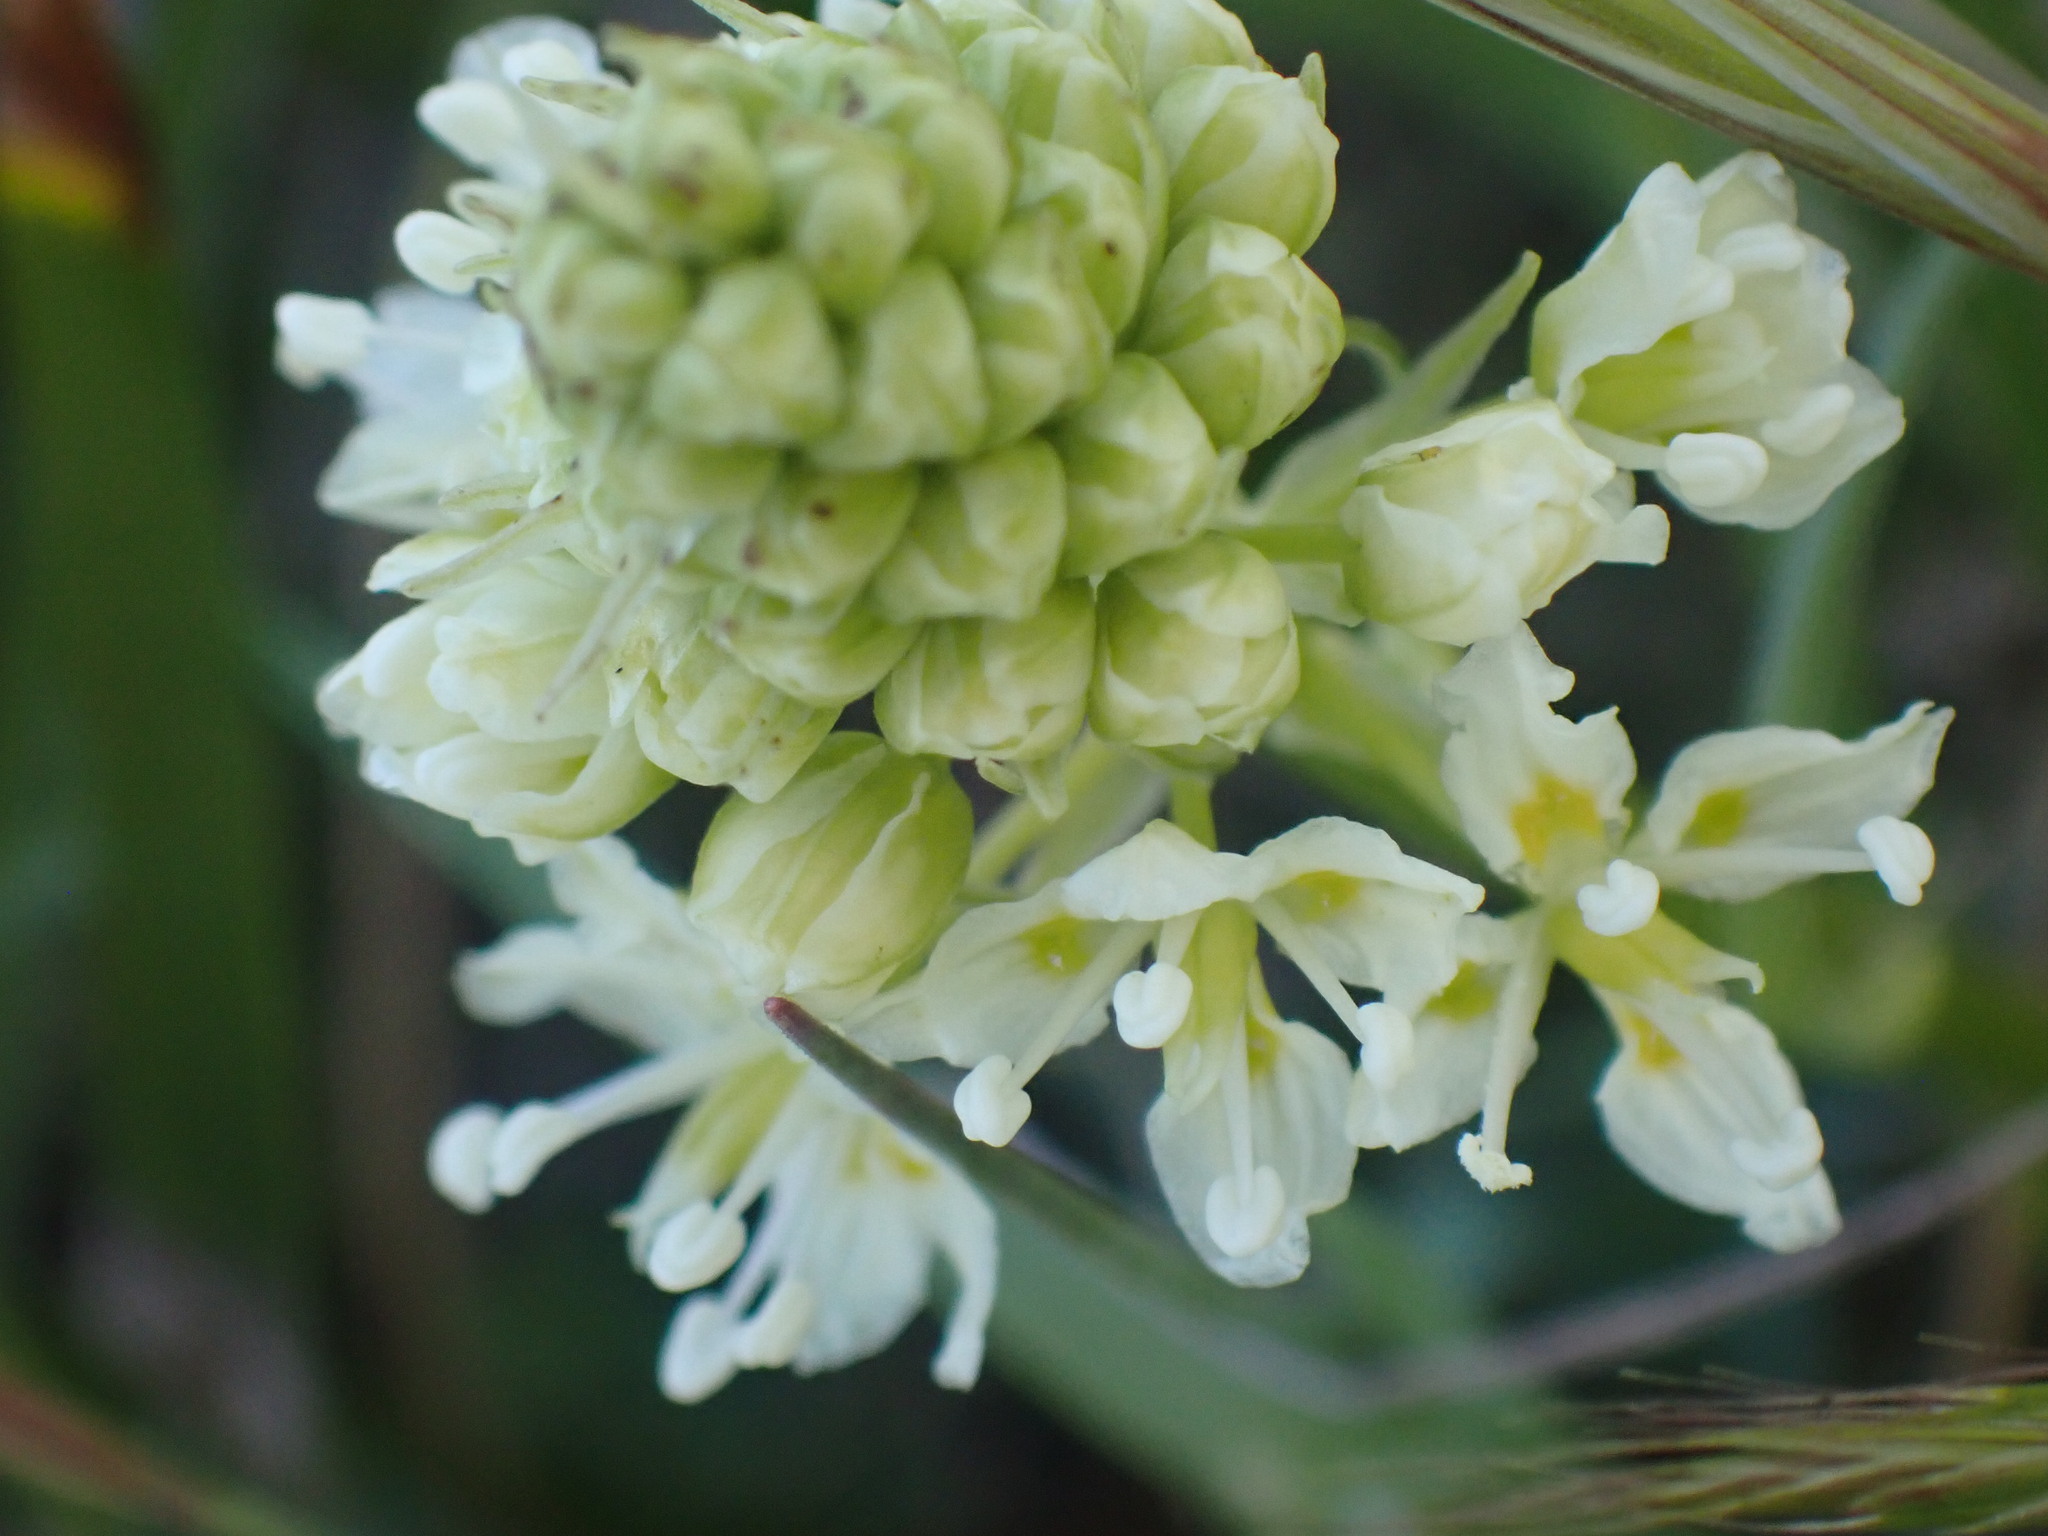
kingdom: Plantae
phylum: Tracheophyta
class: Liliopsida
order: Liliales
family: Melanthiaceae
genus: Toxicoscordion
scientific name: Toxicoscordion venenosum
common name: Meadow death camas
